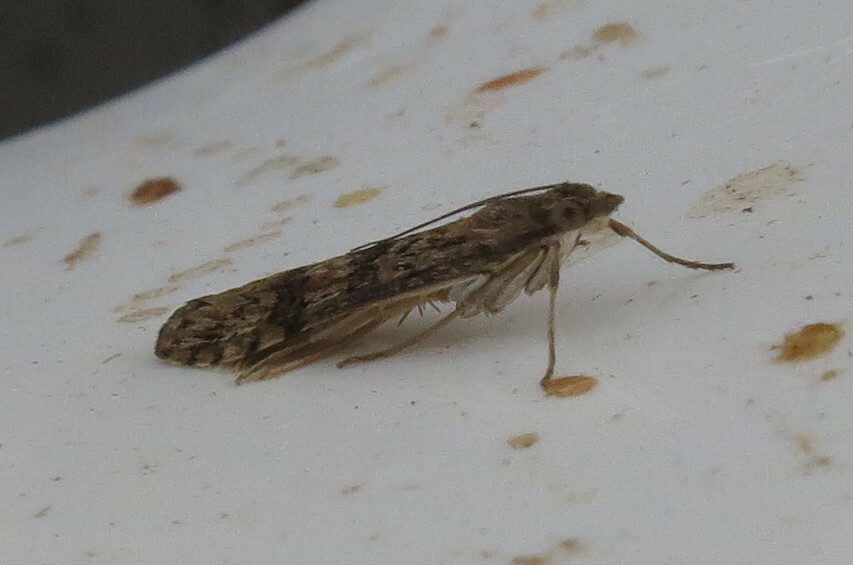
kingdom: Animalia
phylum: Arthropoda
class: Insecta
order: Lepidoptera
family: Crambidae
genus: Nomophila
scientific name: Nomophila noctuella
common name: Rush veneer
